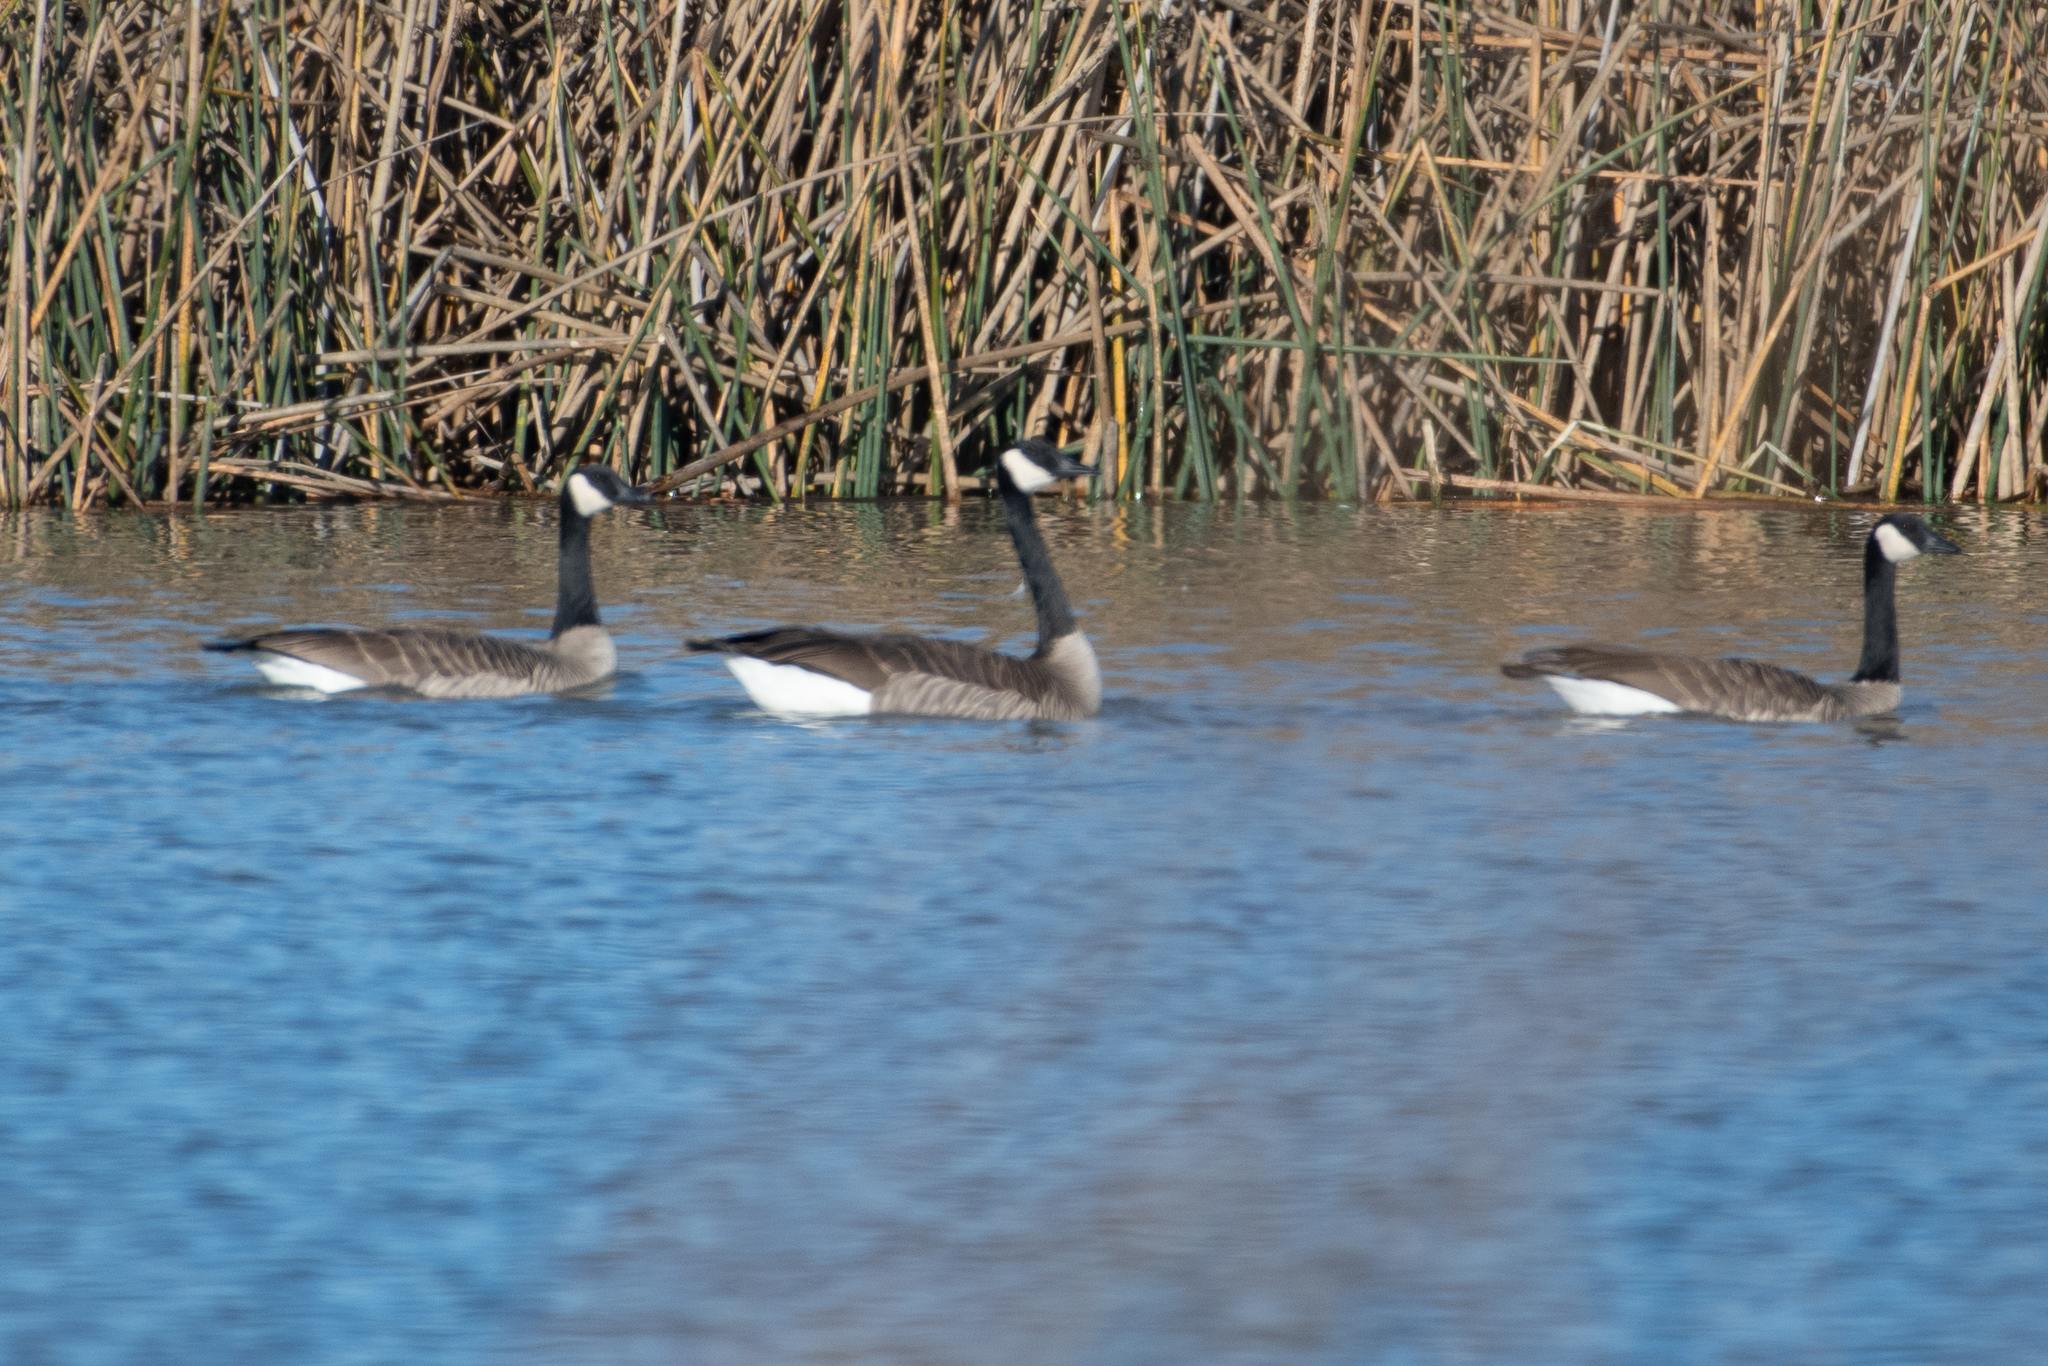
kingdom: Animalia
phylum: Chordata
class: Aves
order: Anseriformes
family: Anatidae
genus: Branta
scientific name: Branta canadensis
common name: Canada goose
